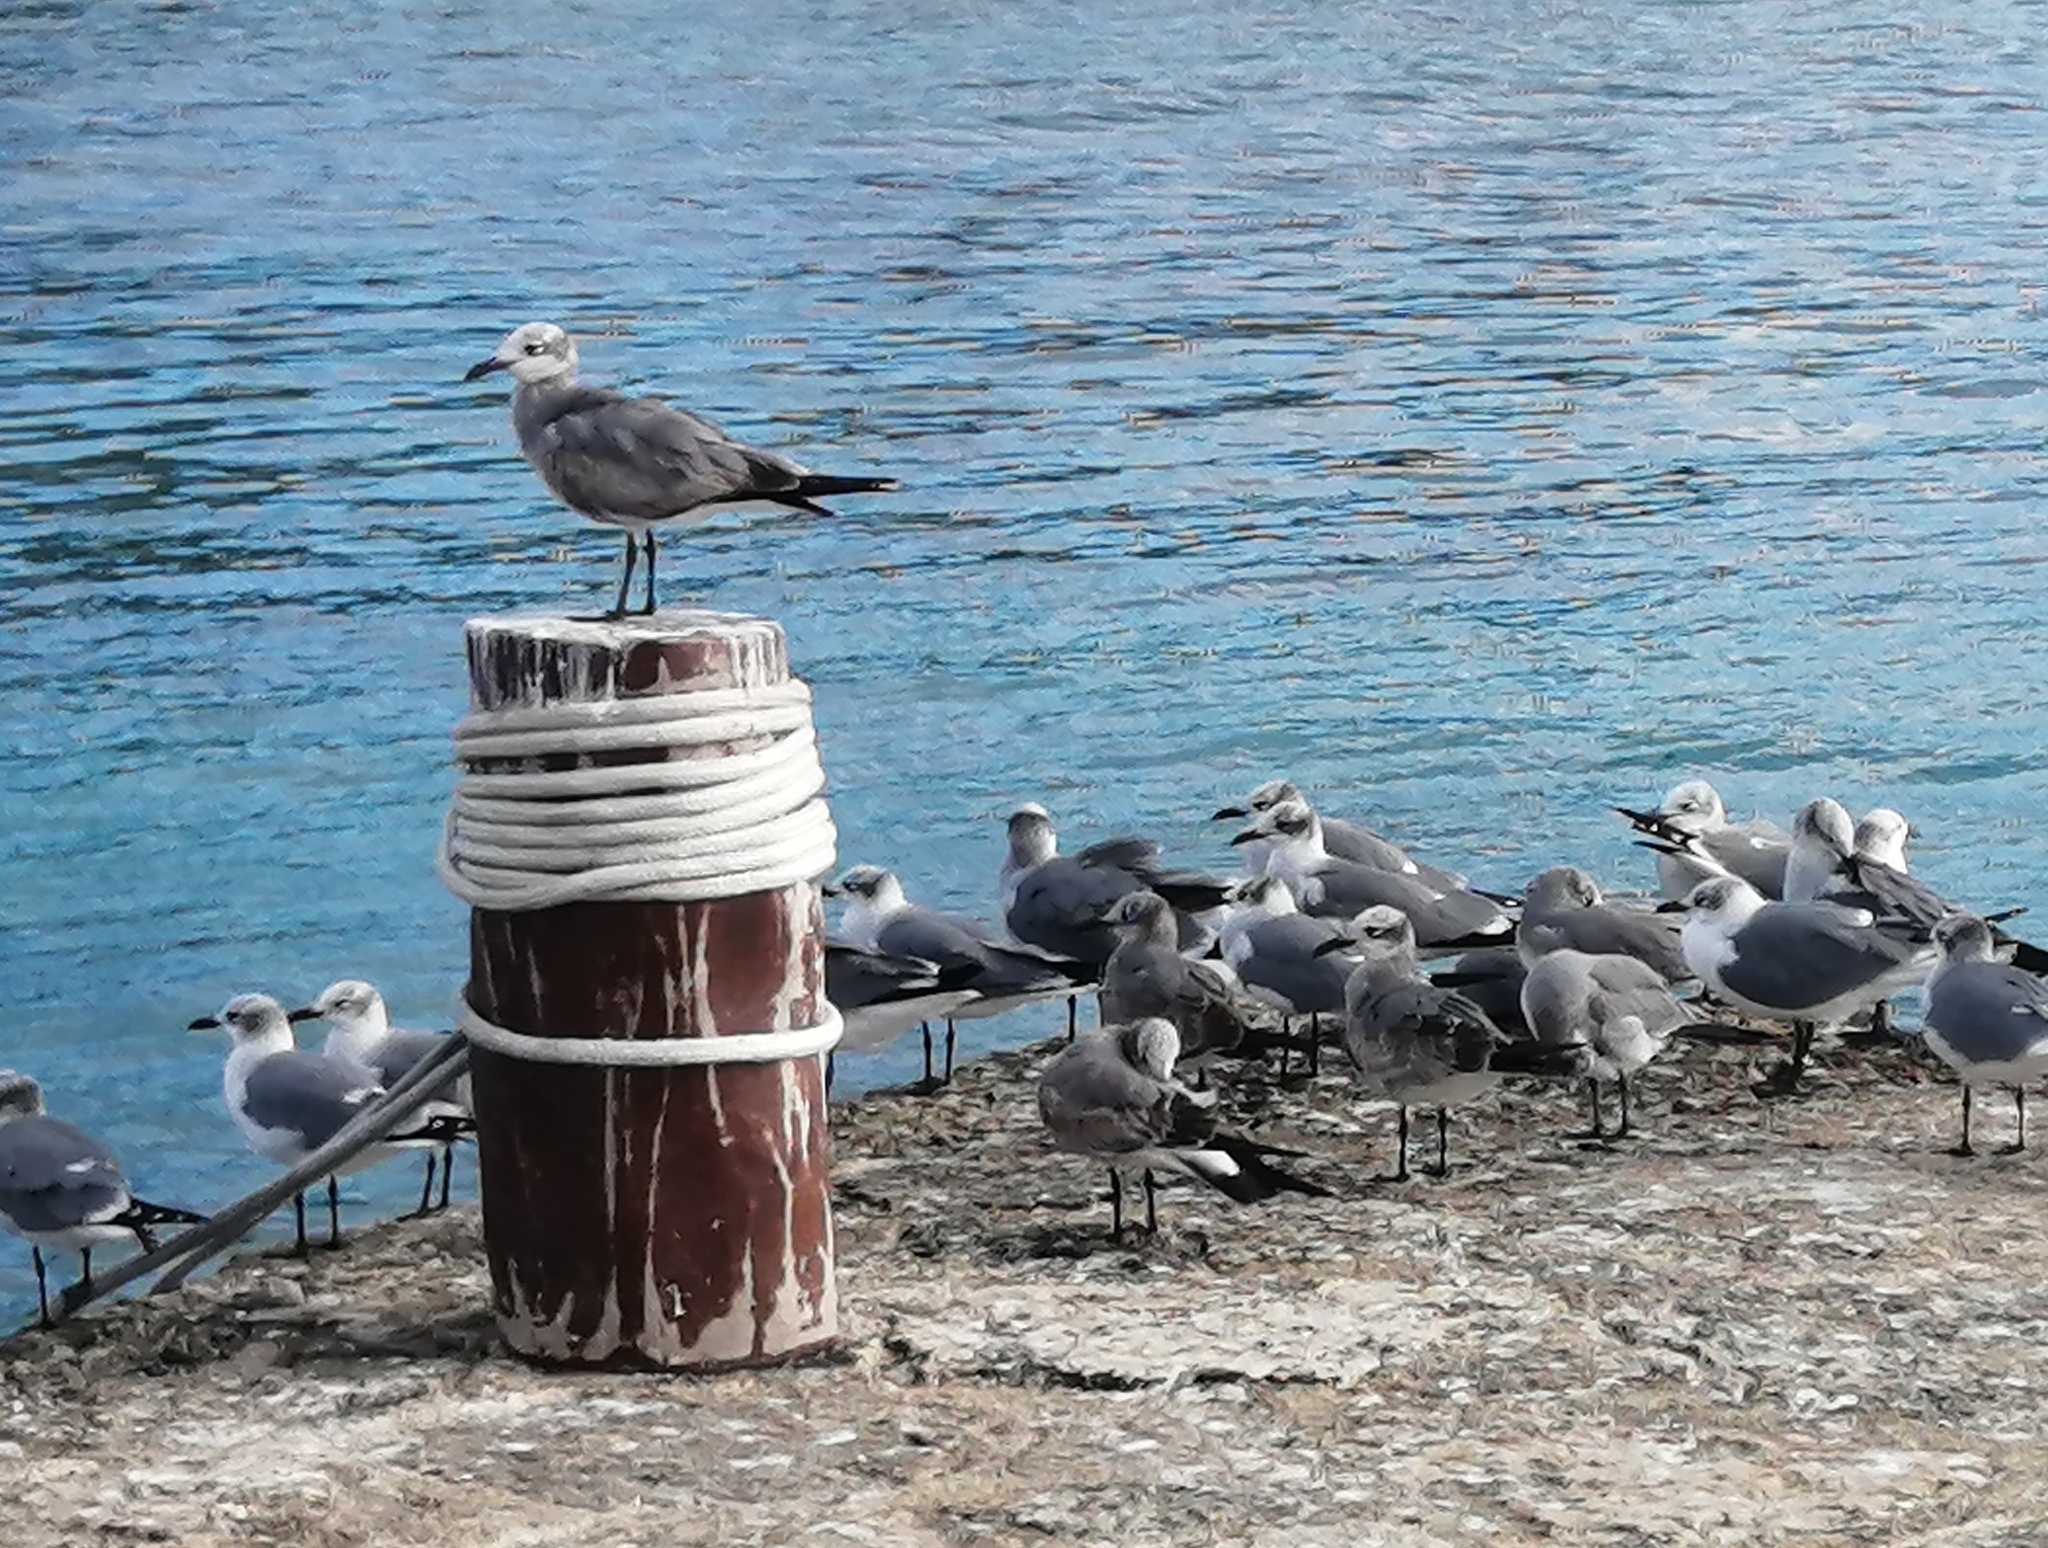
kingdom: Animalia
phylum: Chordata
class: Aves
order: Charadriiformes
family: Laridae
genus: Leucophaeus
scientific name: Leucophaeus atricilla
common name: Laughing gull
